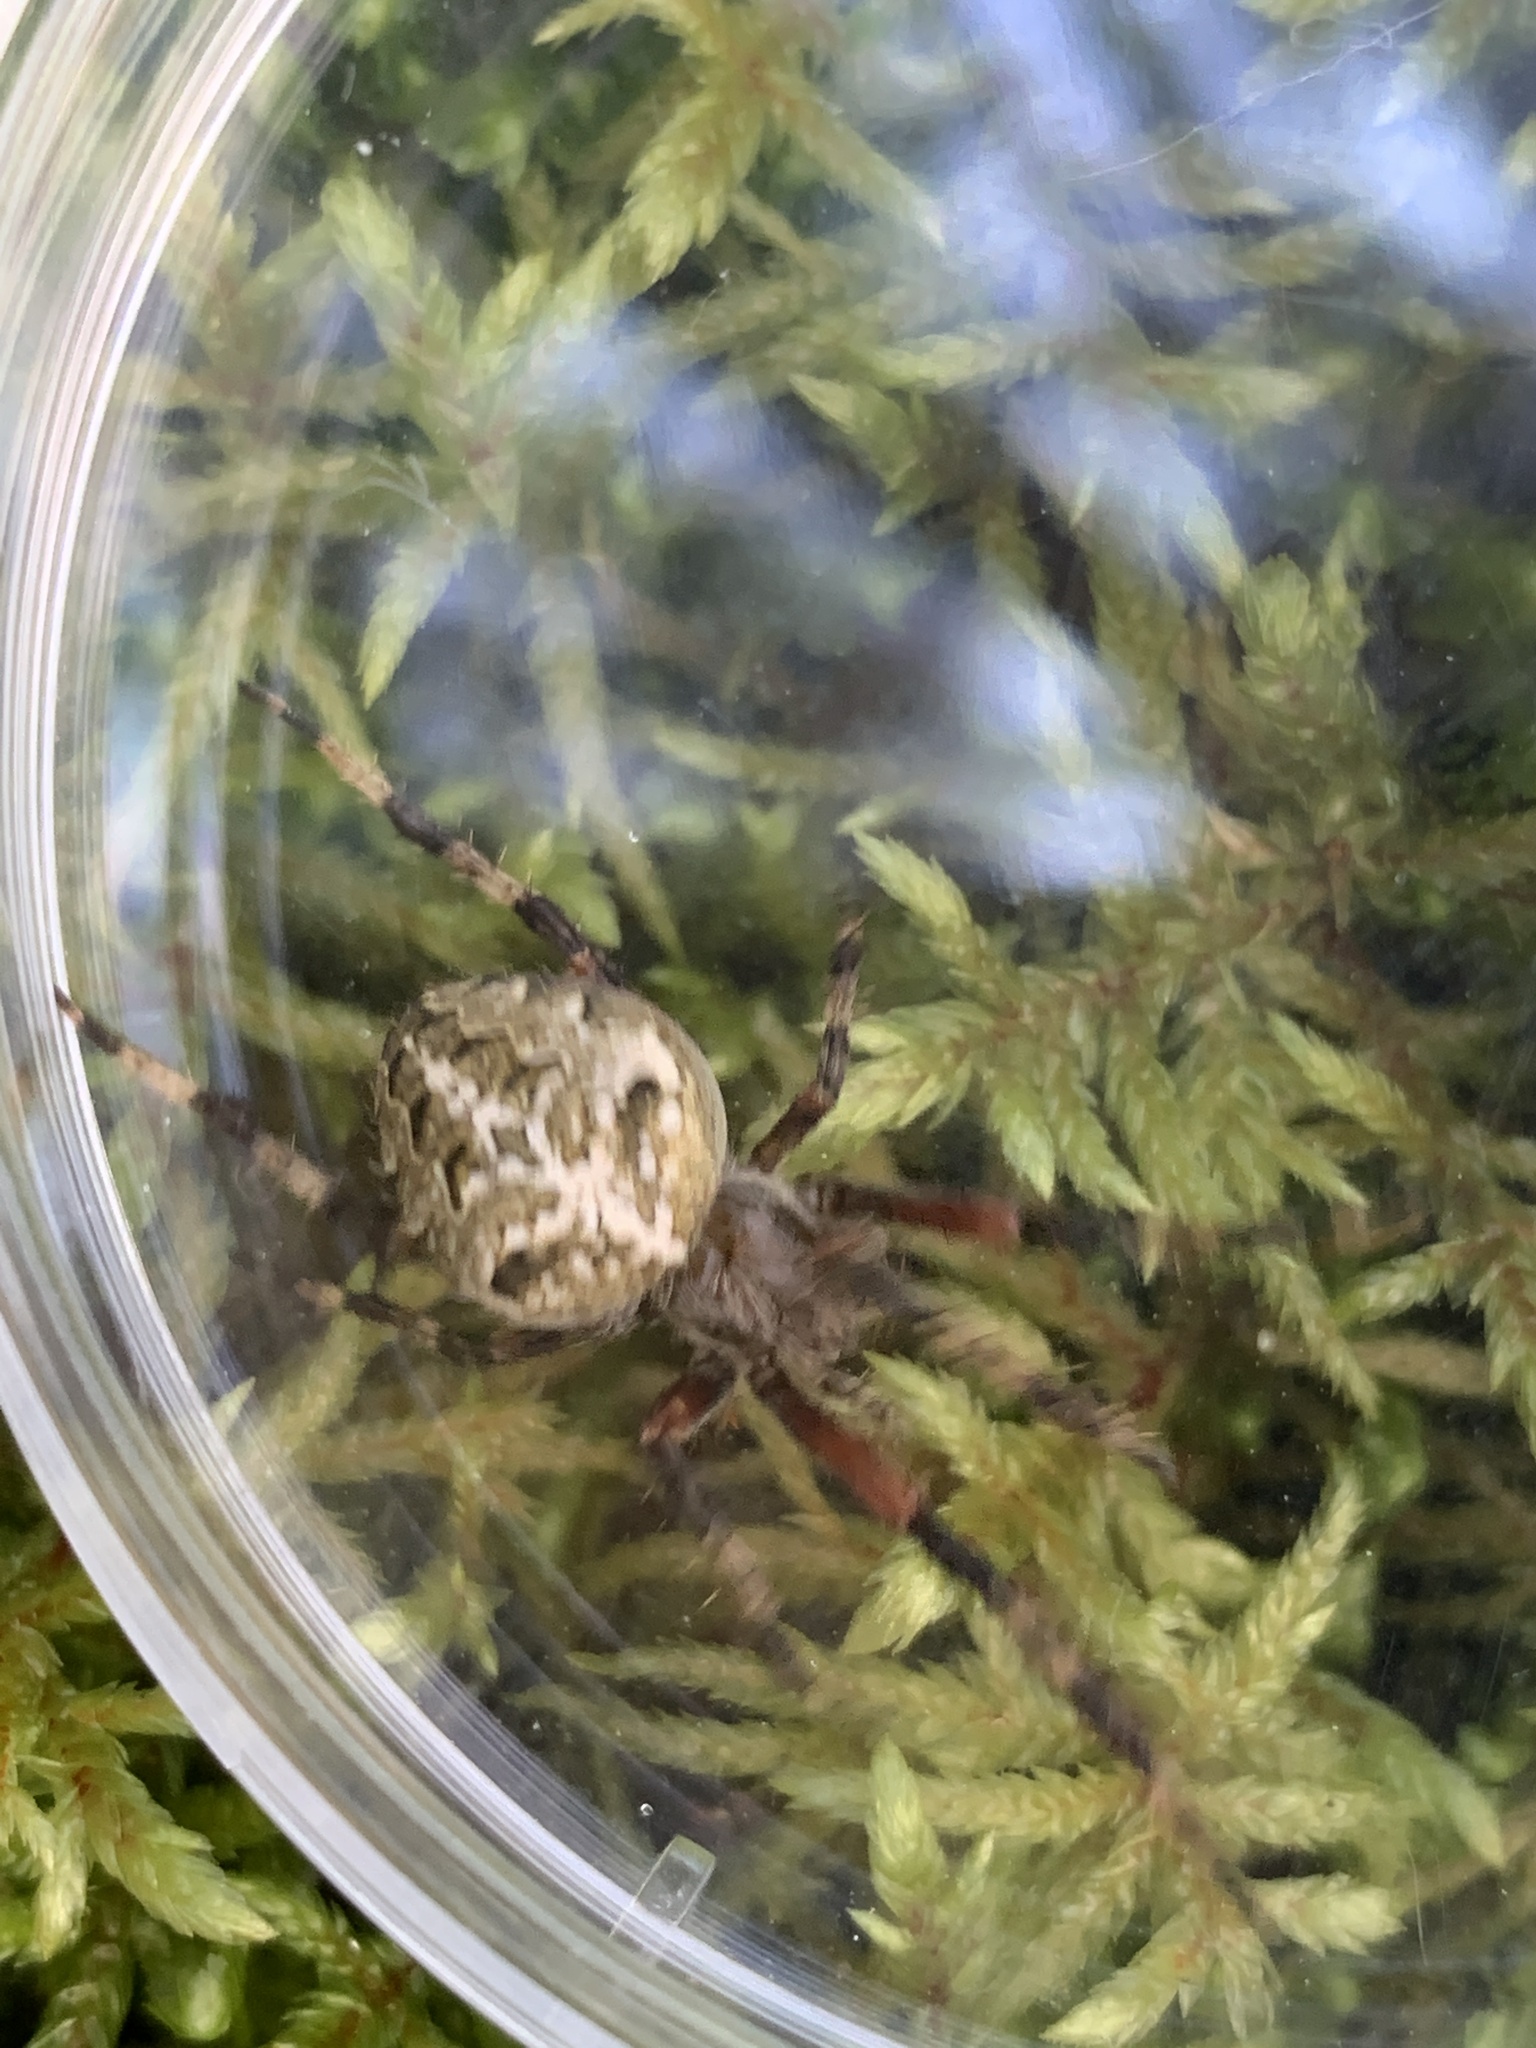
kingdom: Animalia
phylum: Arthropoda
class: Arachnida
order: Araneae
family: Araneidae
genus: Araneus
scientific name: Araneus nordmanni
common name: Nordmann's orbweaver
